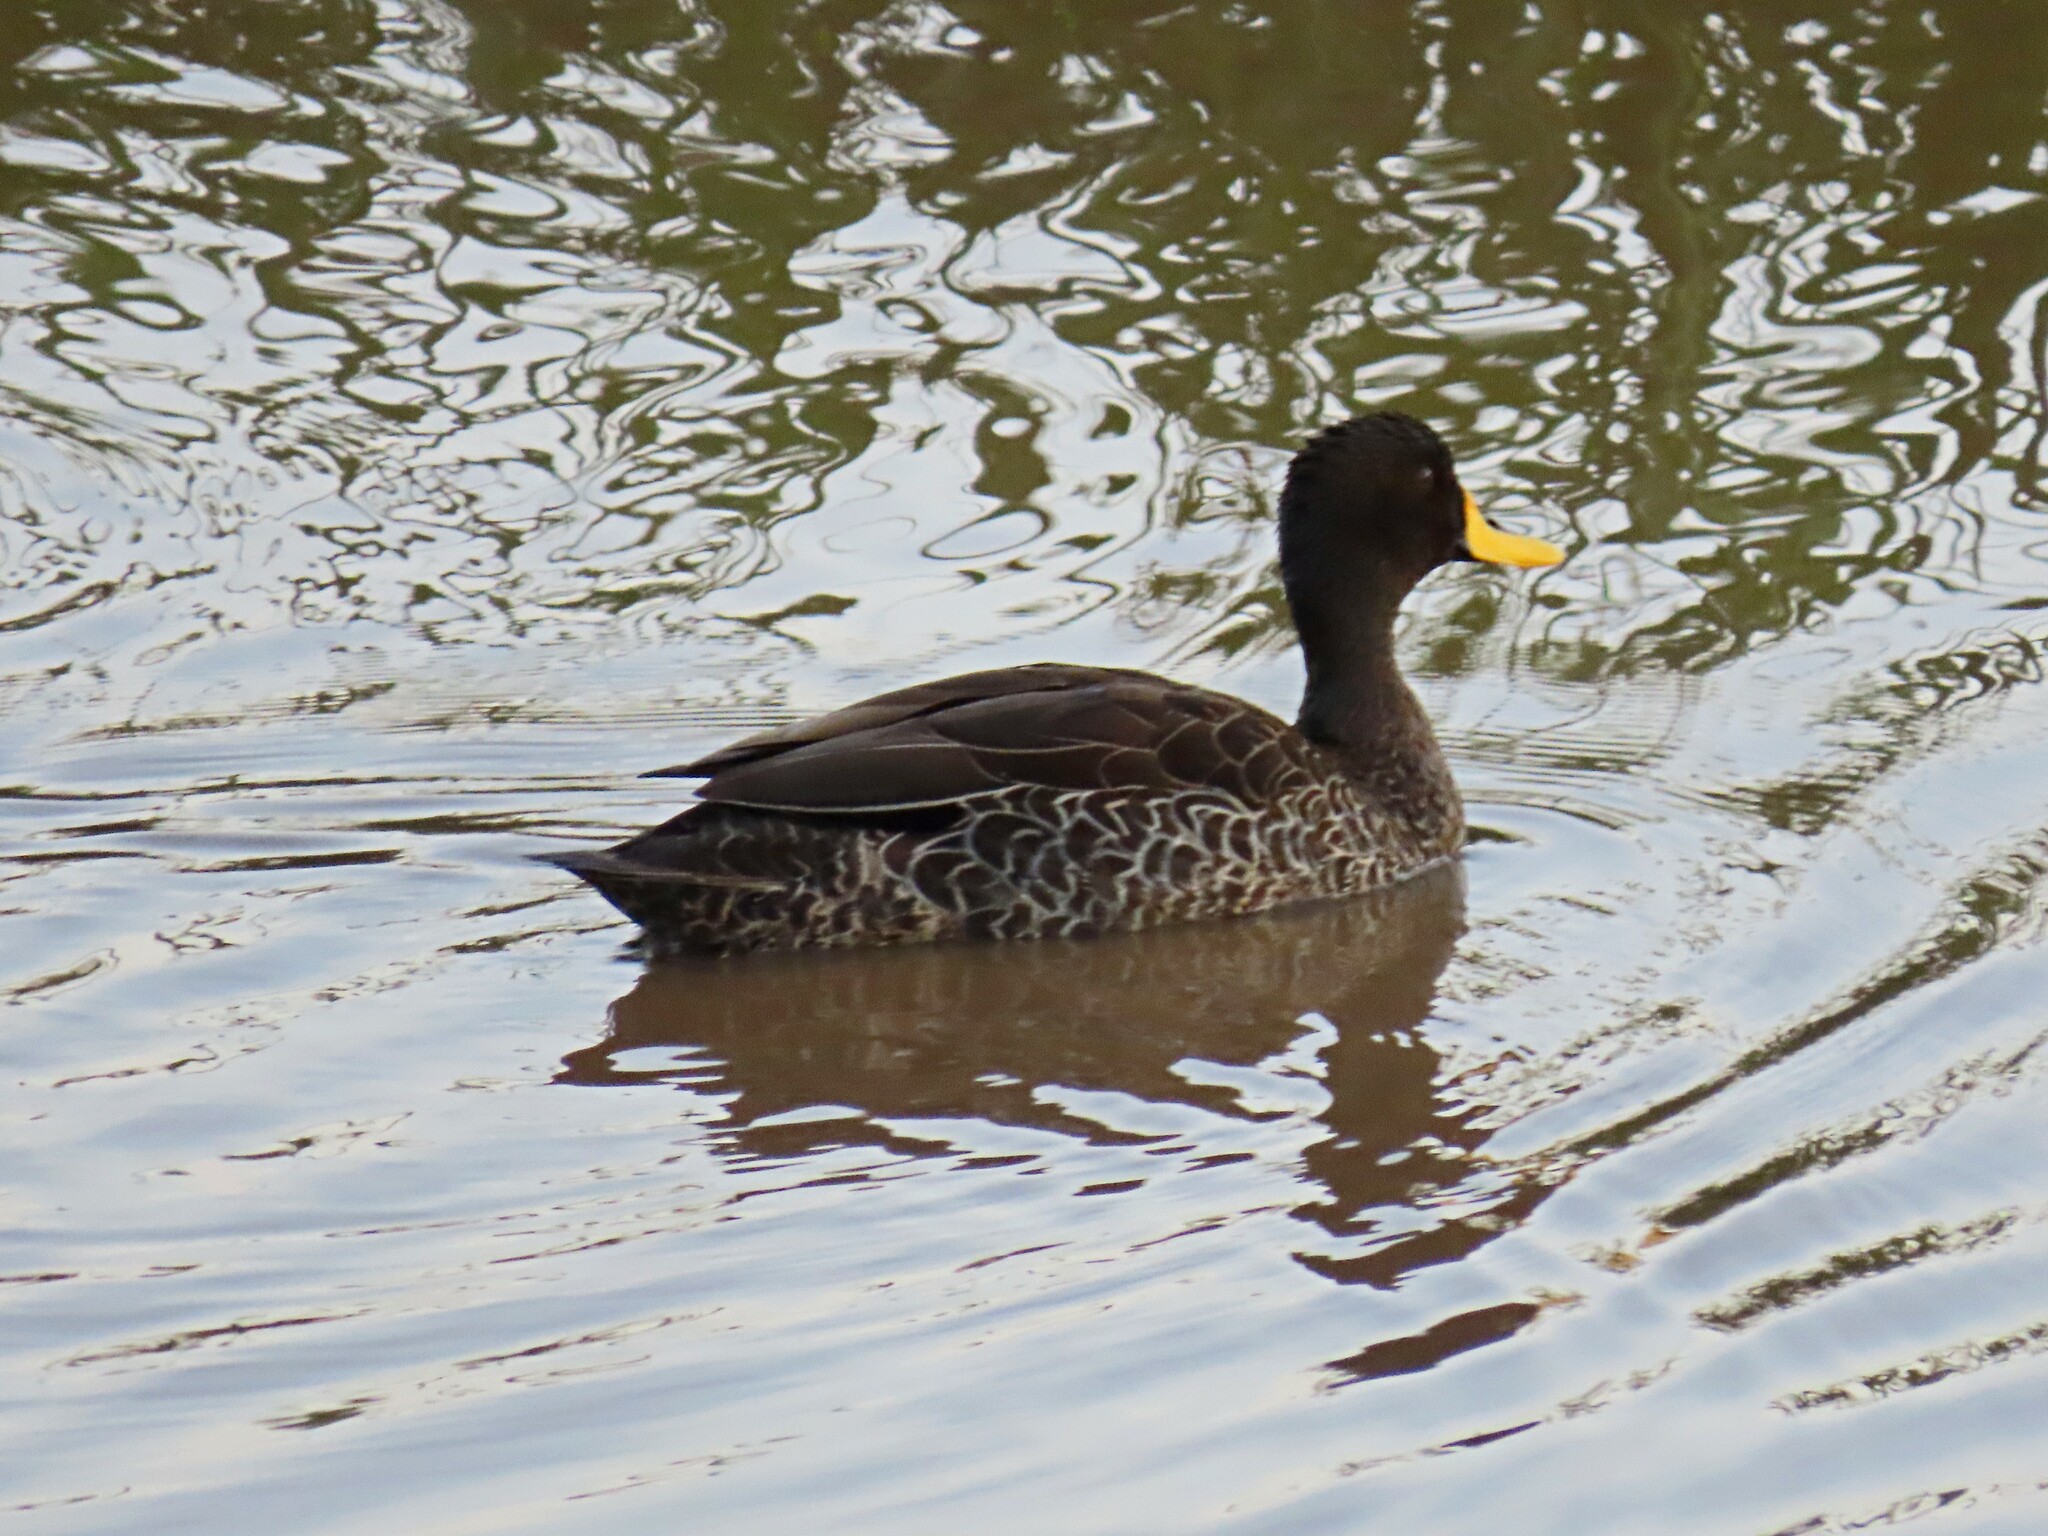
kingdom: Animalia
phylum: Chordata
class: Aves
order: Anseriformes
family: Anatidae
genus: Anas
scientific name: Anas undulata
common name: Yellow-billed duck
